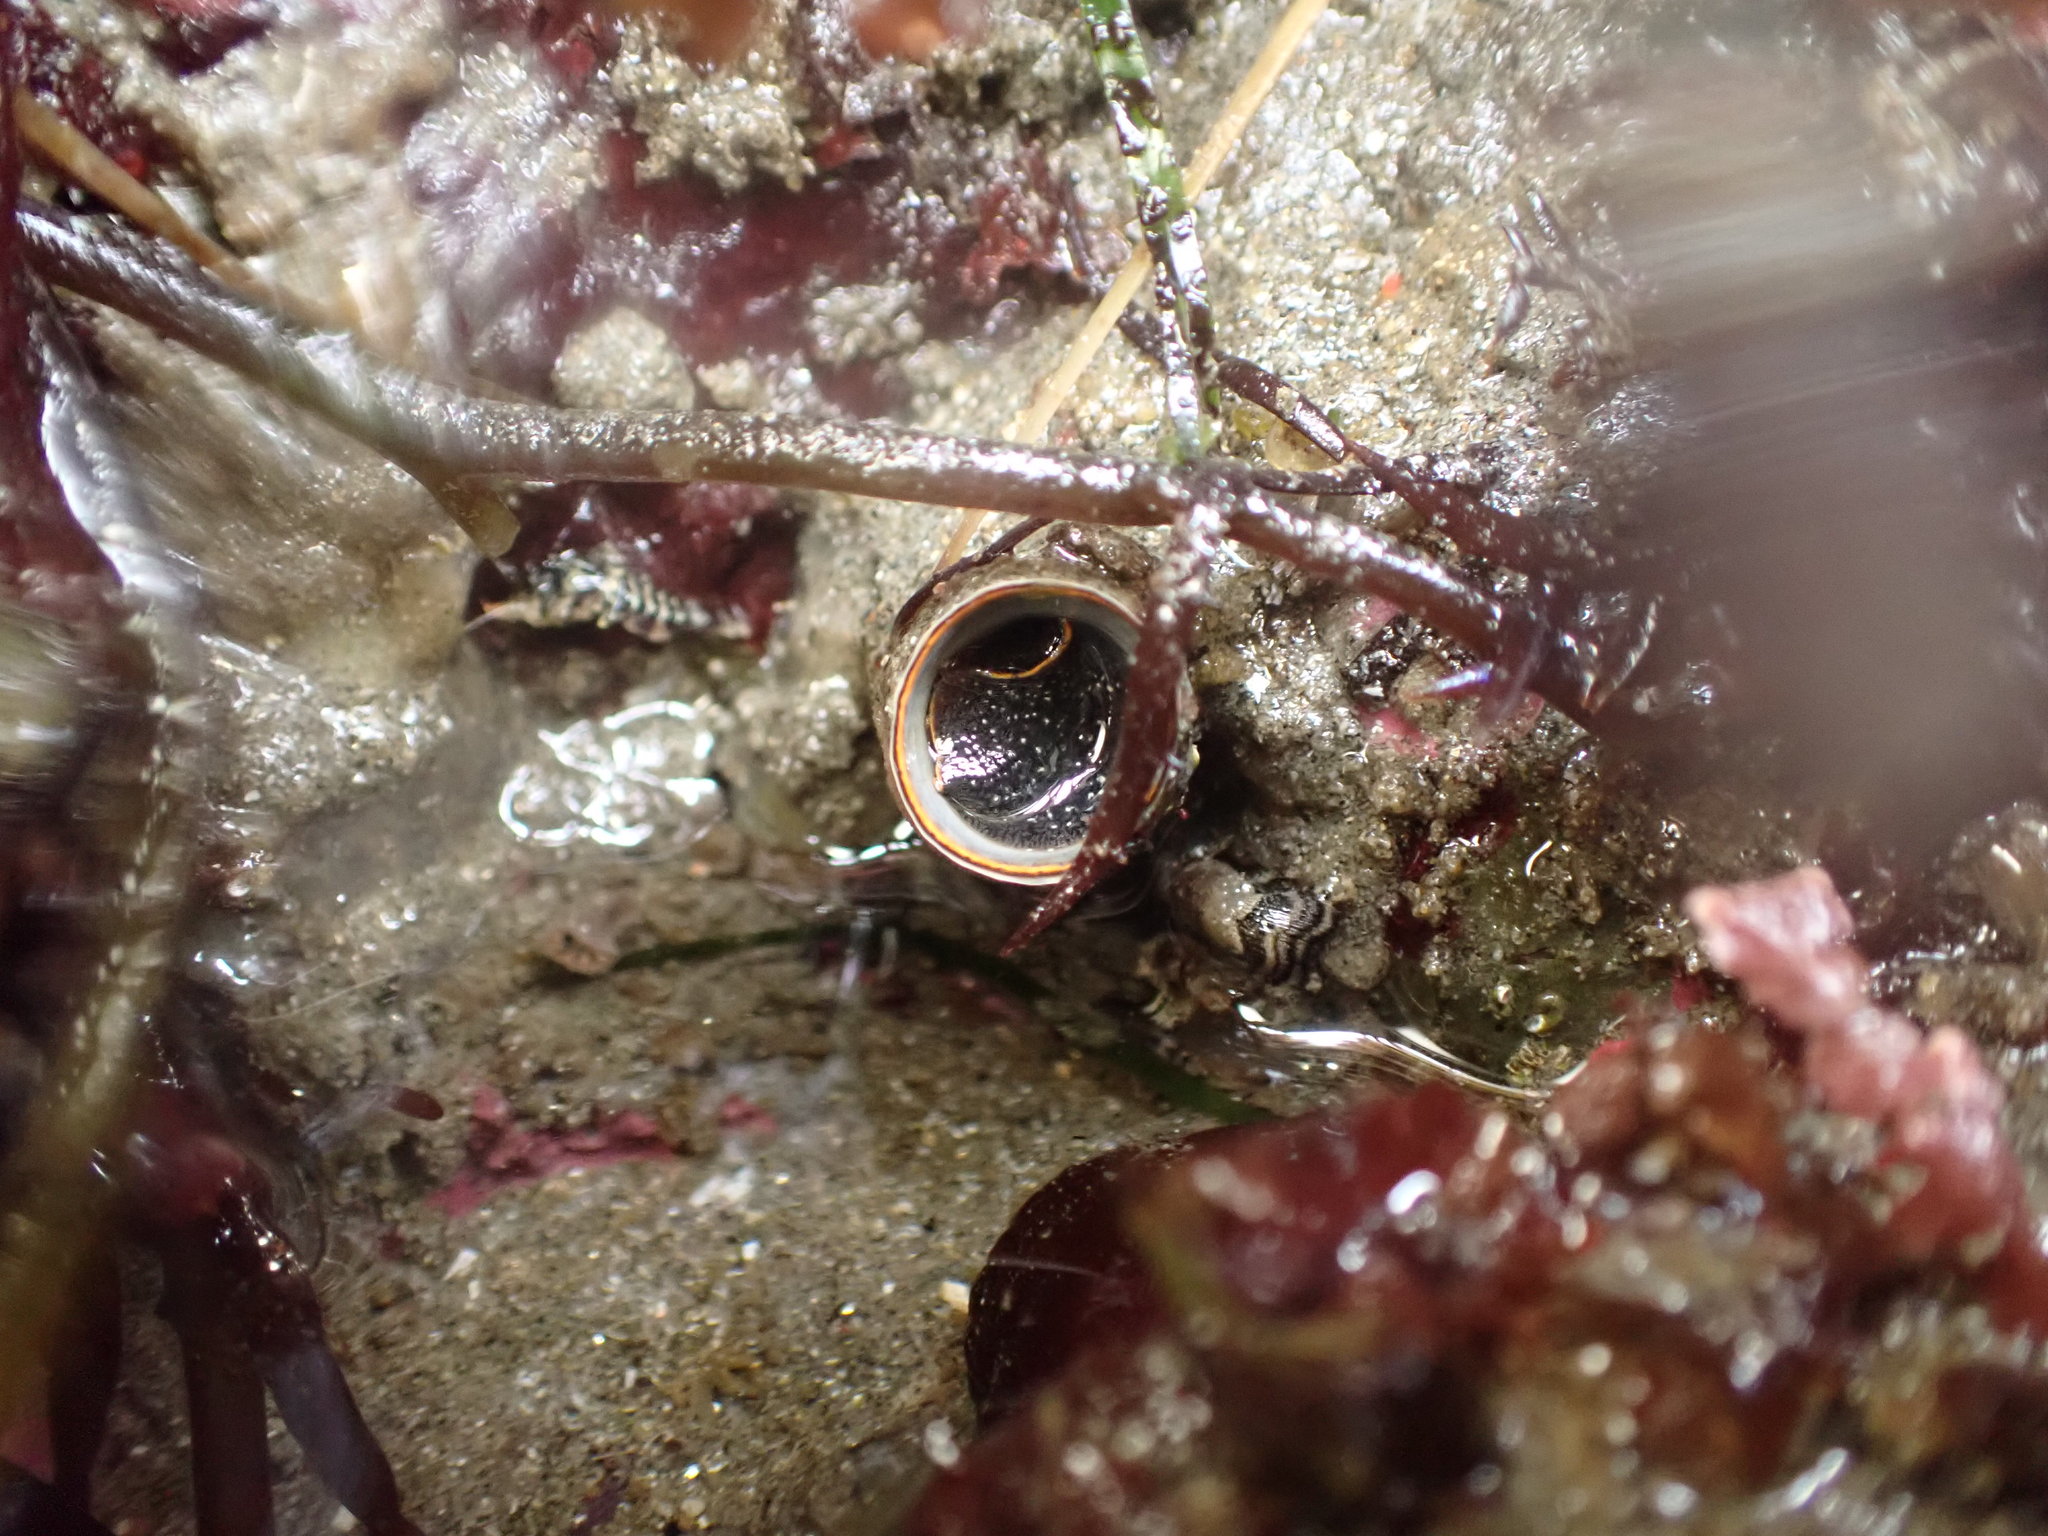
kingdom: Animalia
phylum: Mollusca
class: Gastropoda
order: Littorinimorpha
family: Vermetidae
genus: Thylacodes
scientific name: Thylacodes squamigerus
